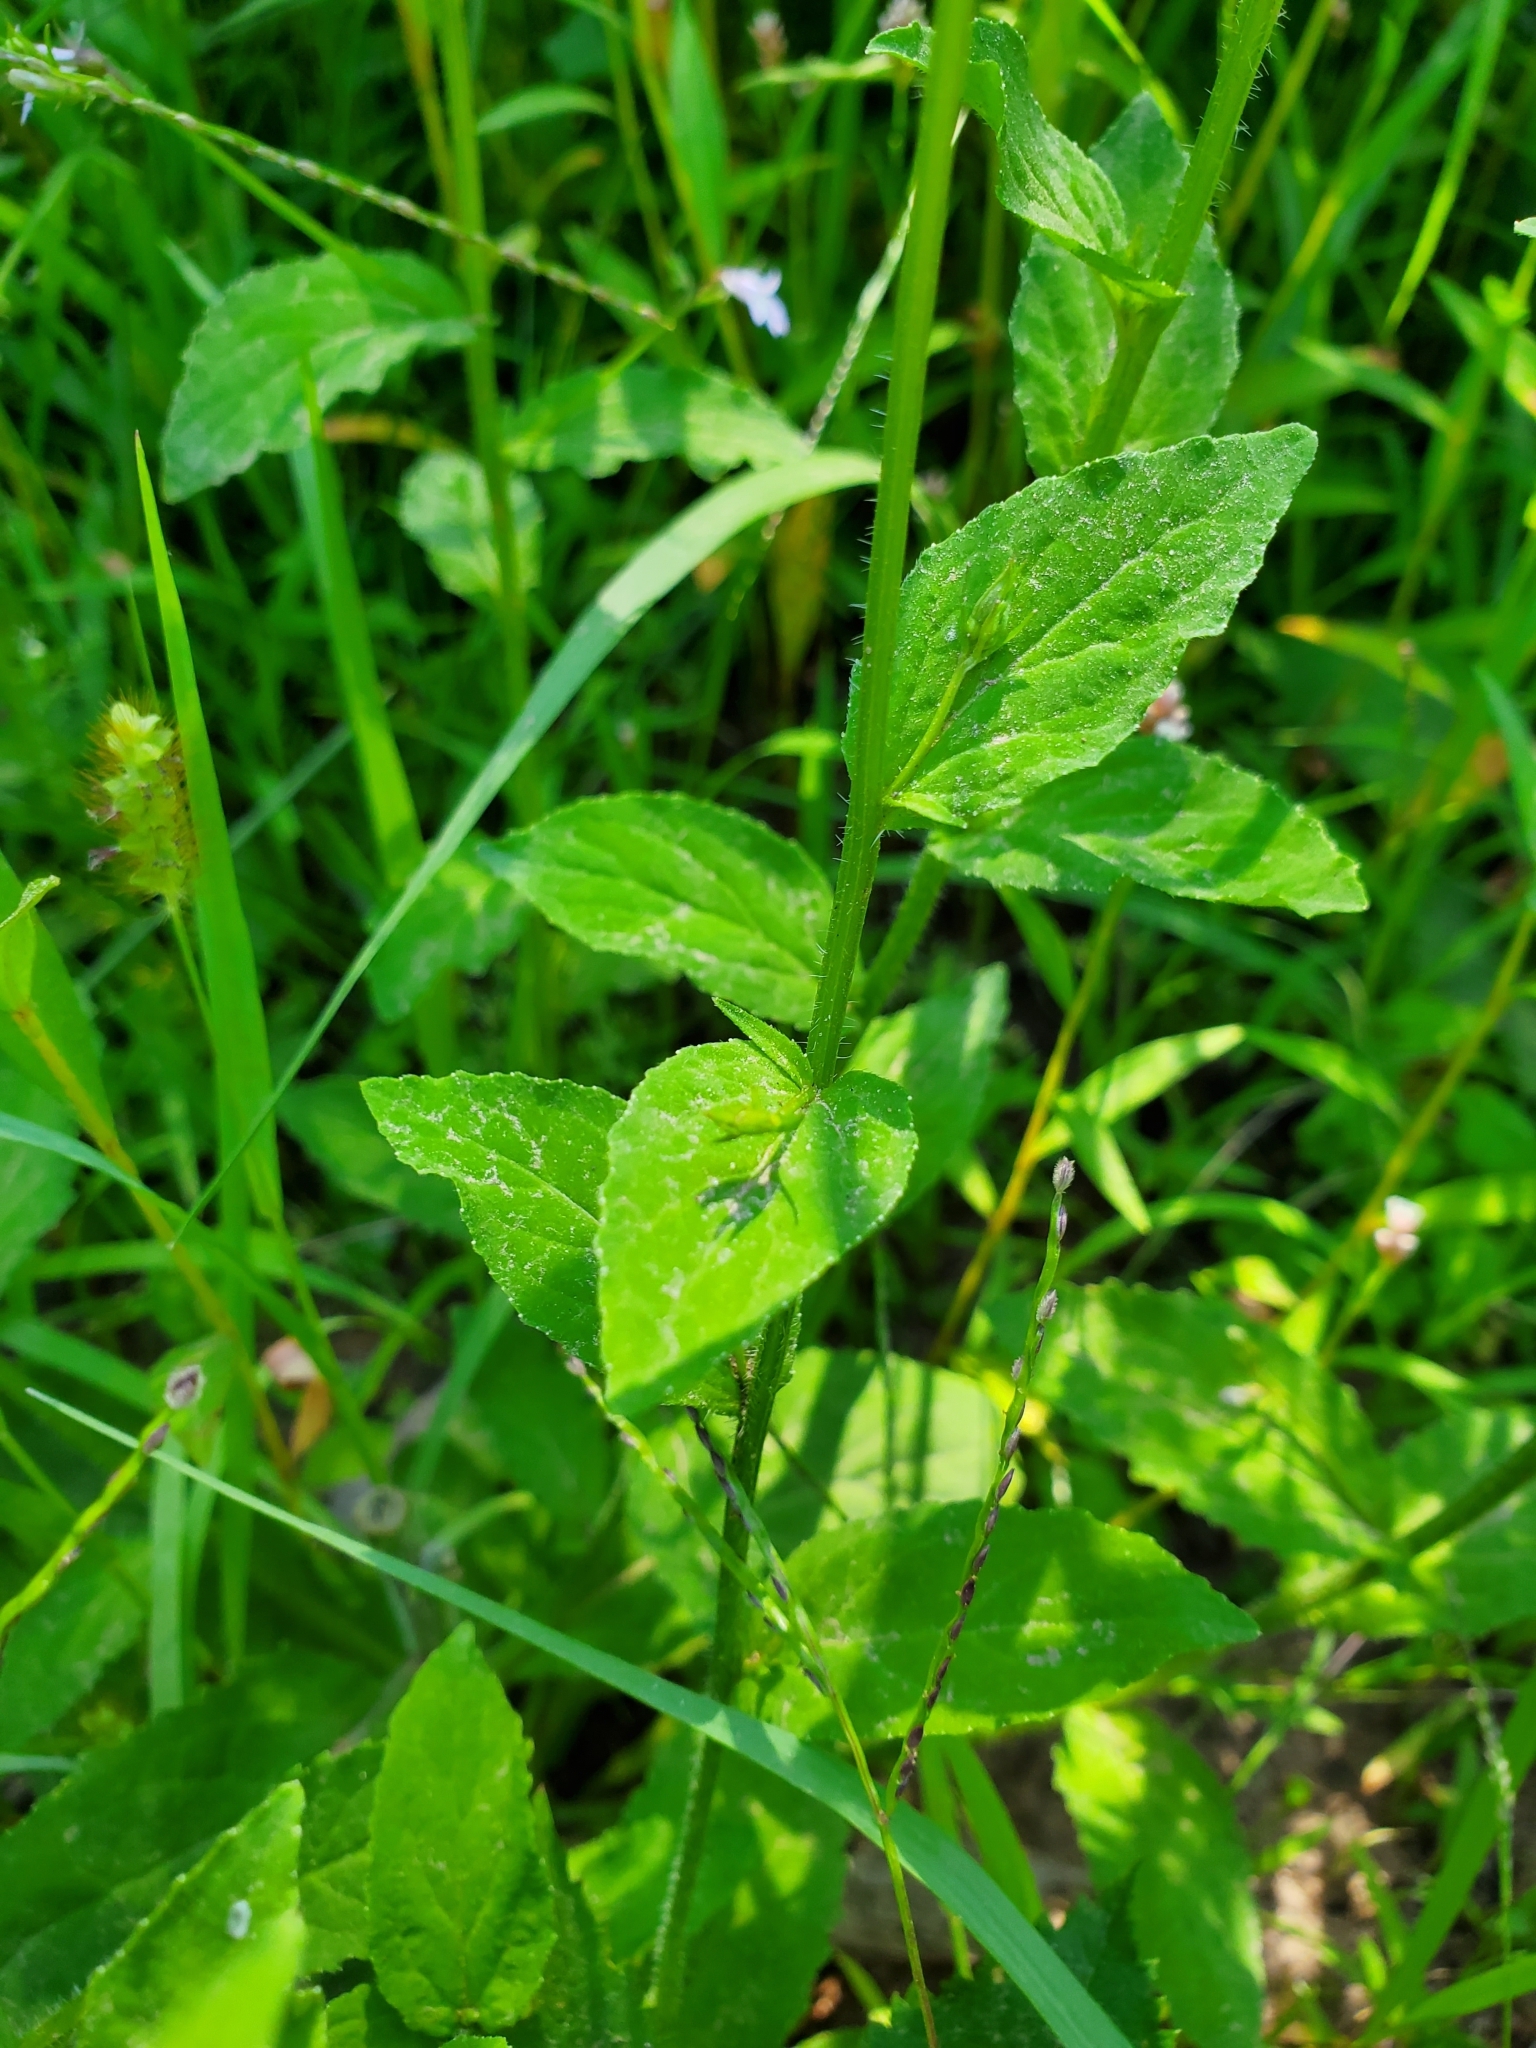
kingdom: Plantae
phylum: Tracheophyta
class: Magnoliopsida
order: Asterales
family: Campanulaceae
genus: Lobelia
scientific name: Lobelia inflata
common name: Indian tobacco
